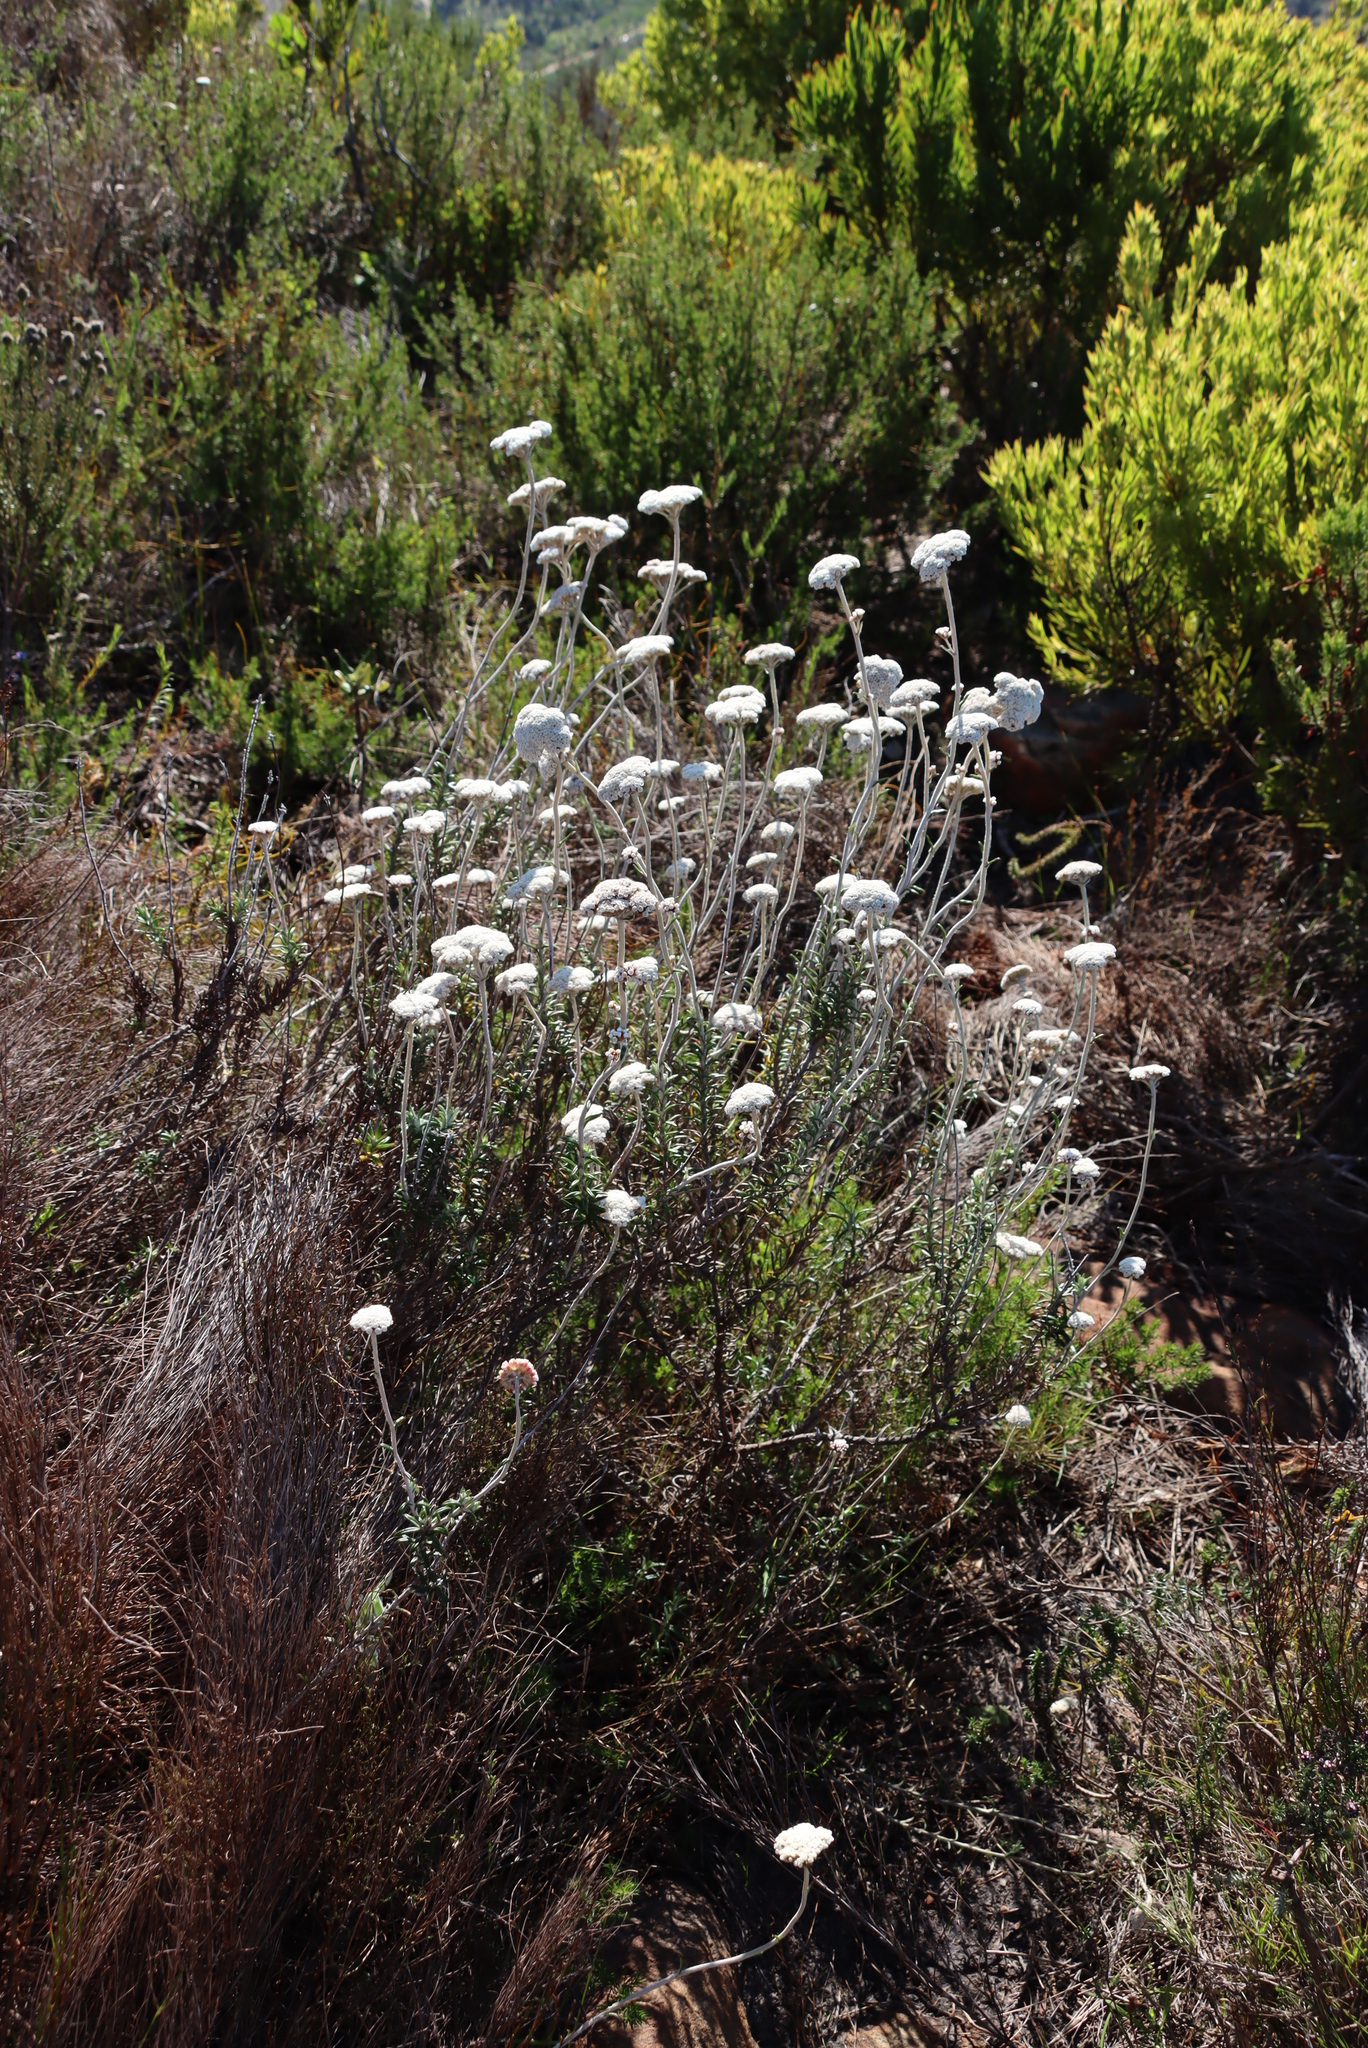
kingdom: Plantae
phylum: Tracheophyta
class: Magnoliopsida
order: Asterales
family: Asteraceae
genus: Anaxeton
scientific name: Anaxeton arborescens
